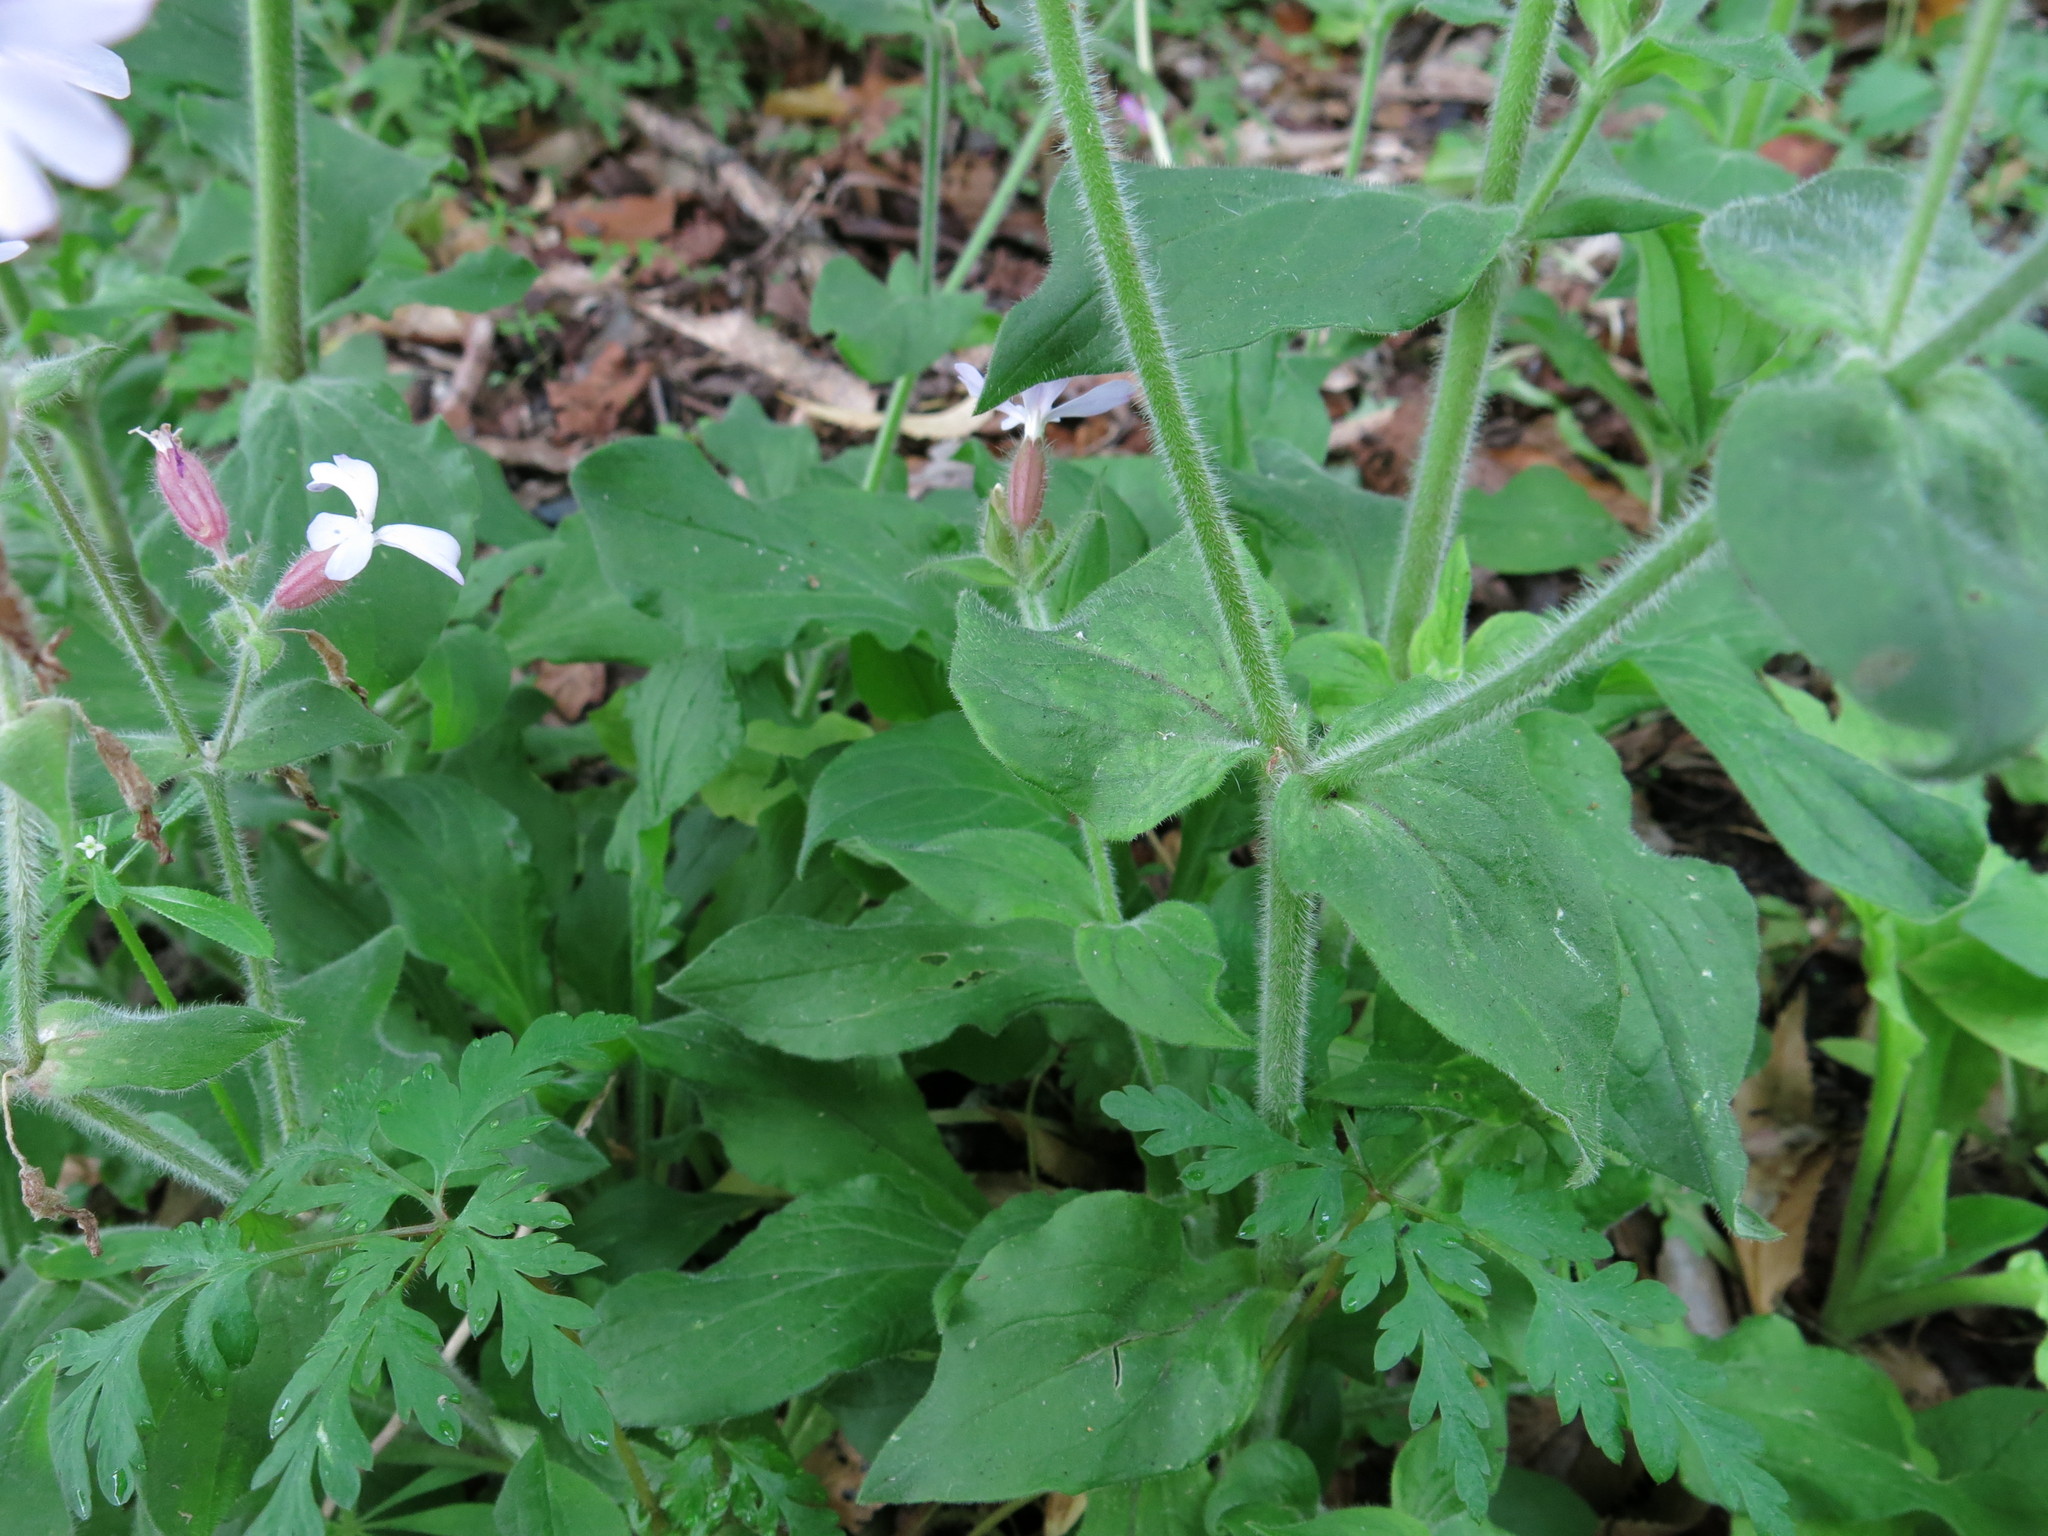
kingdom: Plantae
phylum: Tracheophyta
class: Magnoliopsida
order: Caryophyllales
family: Caryophyllaceae
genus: Silene
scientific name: Silene hampeana
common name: Catchfly
